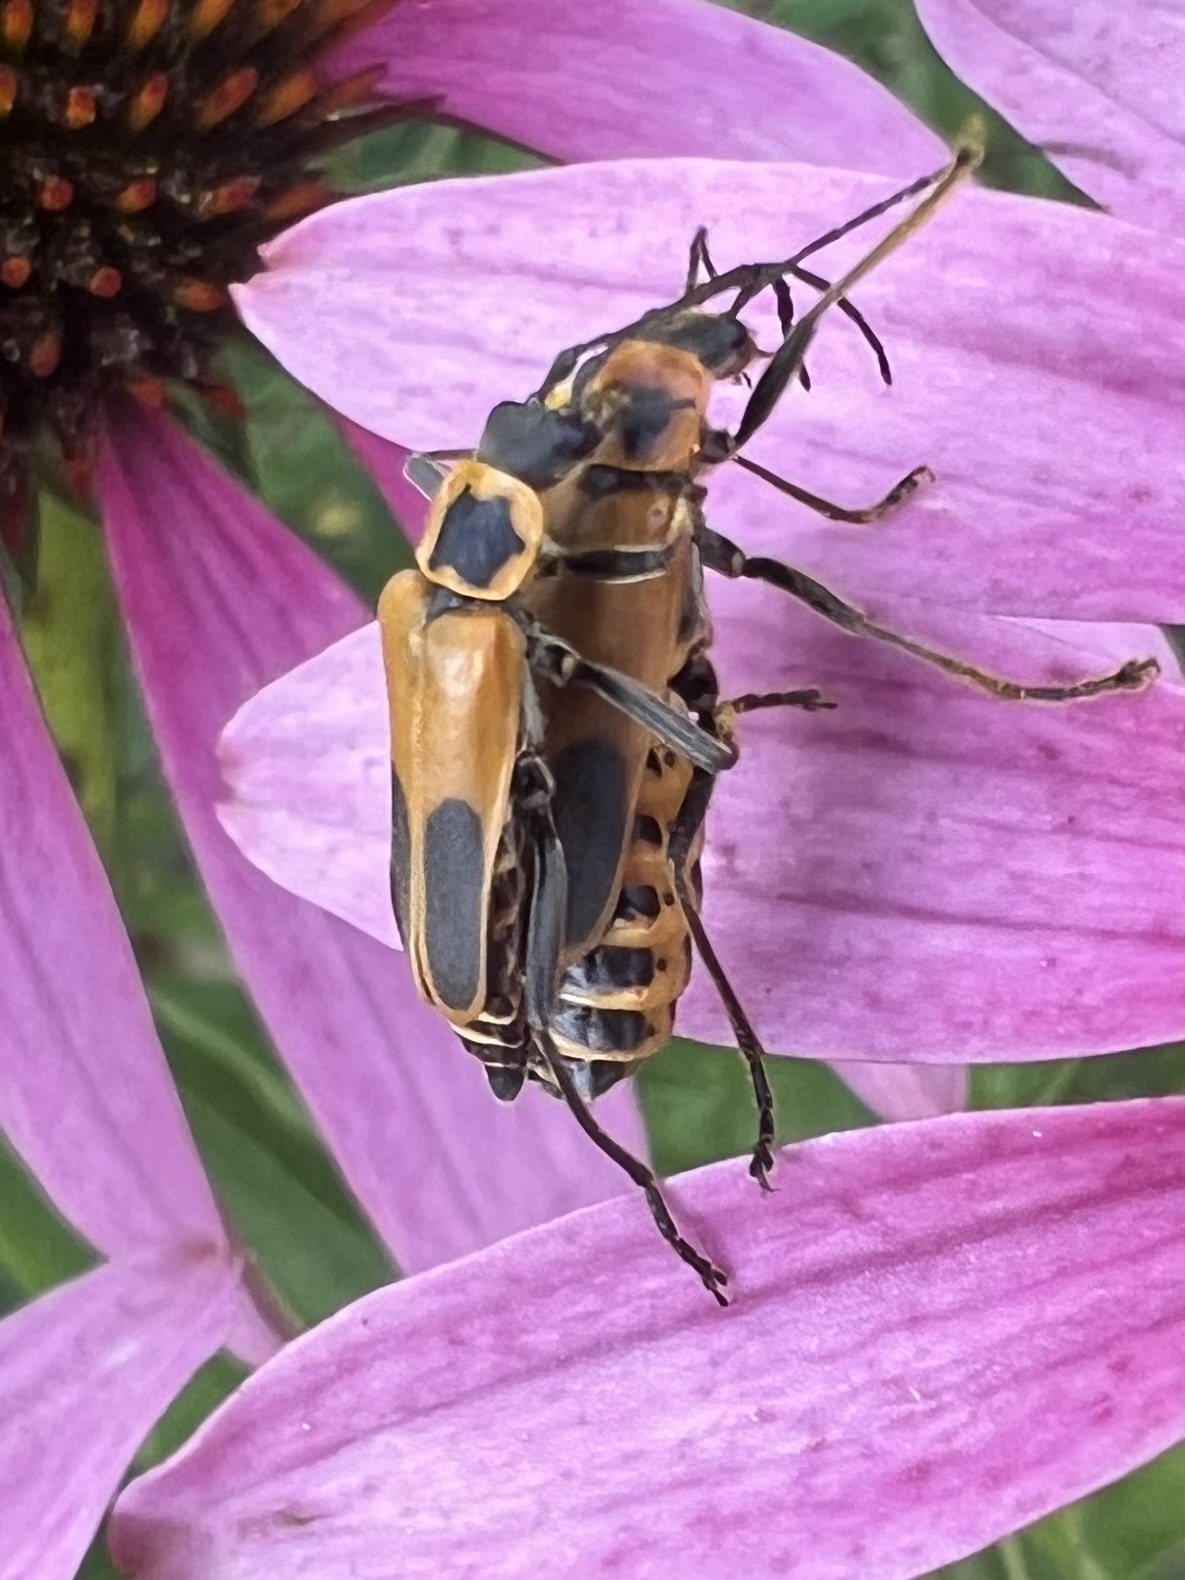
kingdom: Animalia
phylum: Arthropoda
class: Insecta
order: Coleoptera
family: Cantharidae
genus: Chauliognathus
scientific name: Chauliognathus pensylvanicus
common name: Goldenrod soldier beetle
